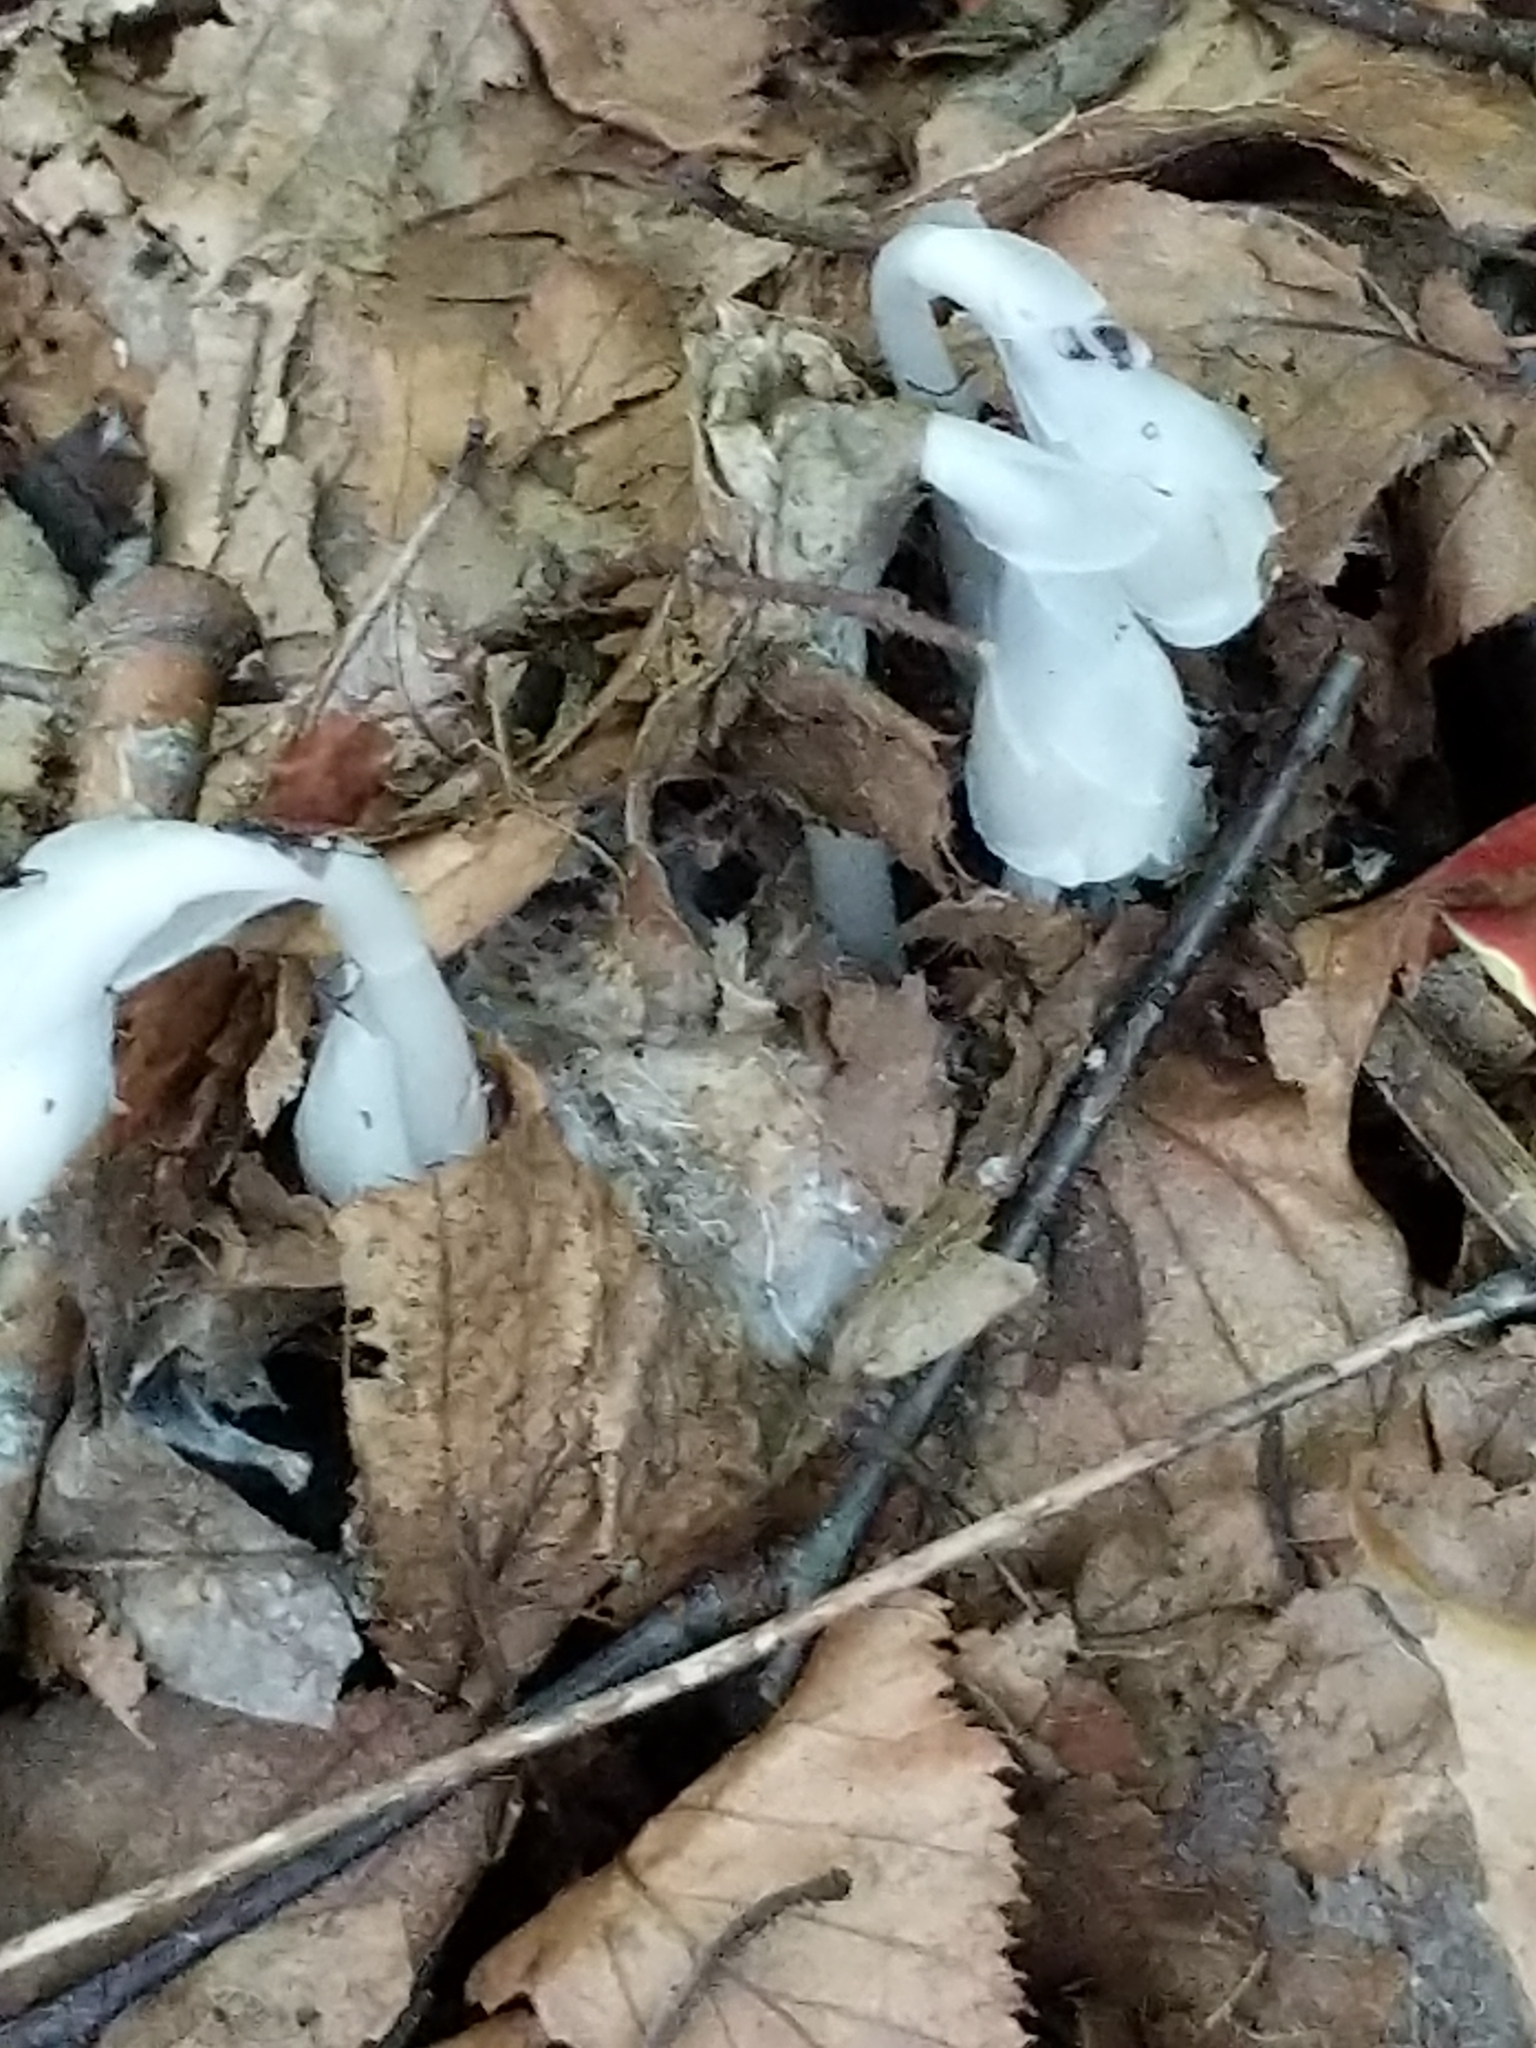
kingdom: Plantae
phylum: Tracheophyta
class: Magnoliopsida
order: Ericales
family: Ericaceae
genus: Monotropa
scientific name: Monotropa uniflora
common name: Convulsion root
